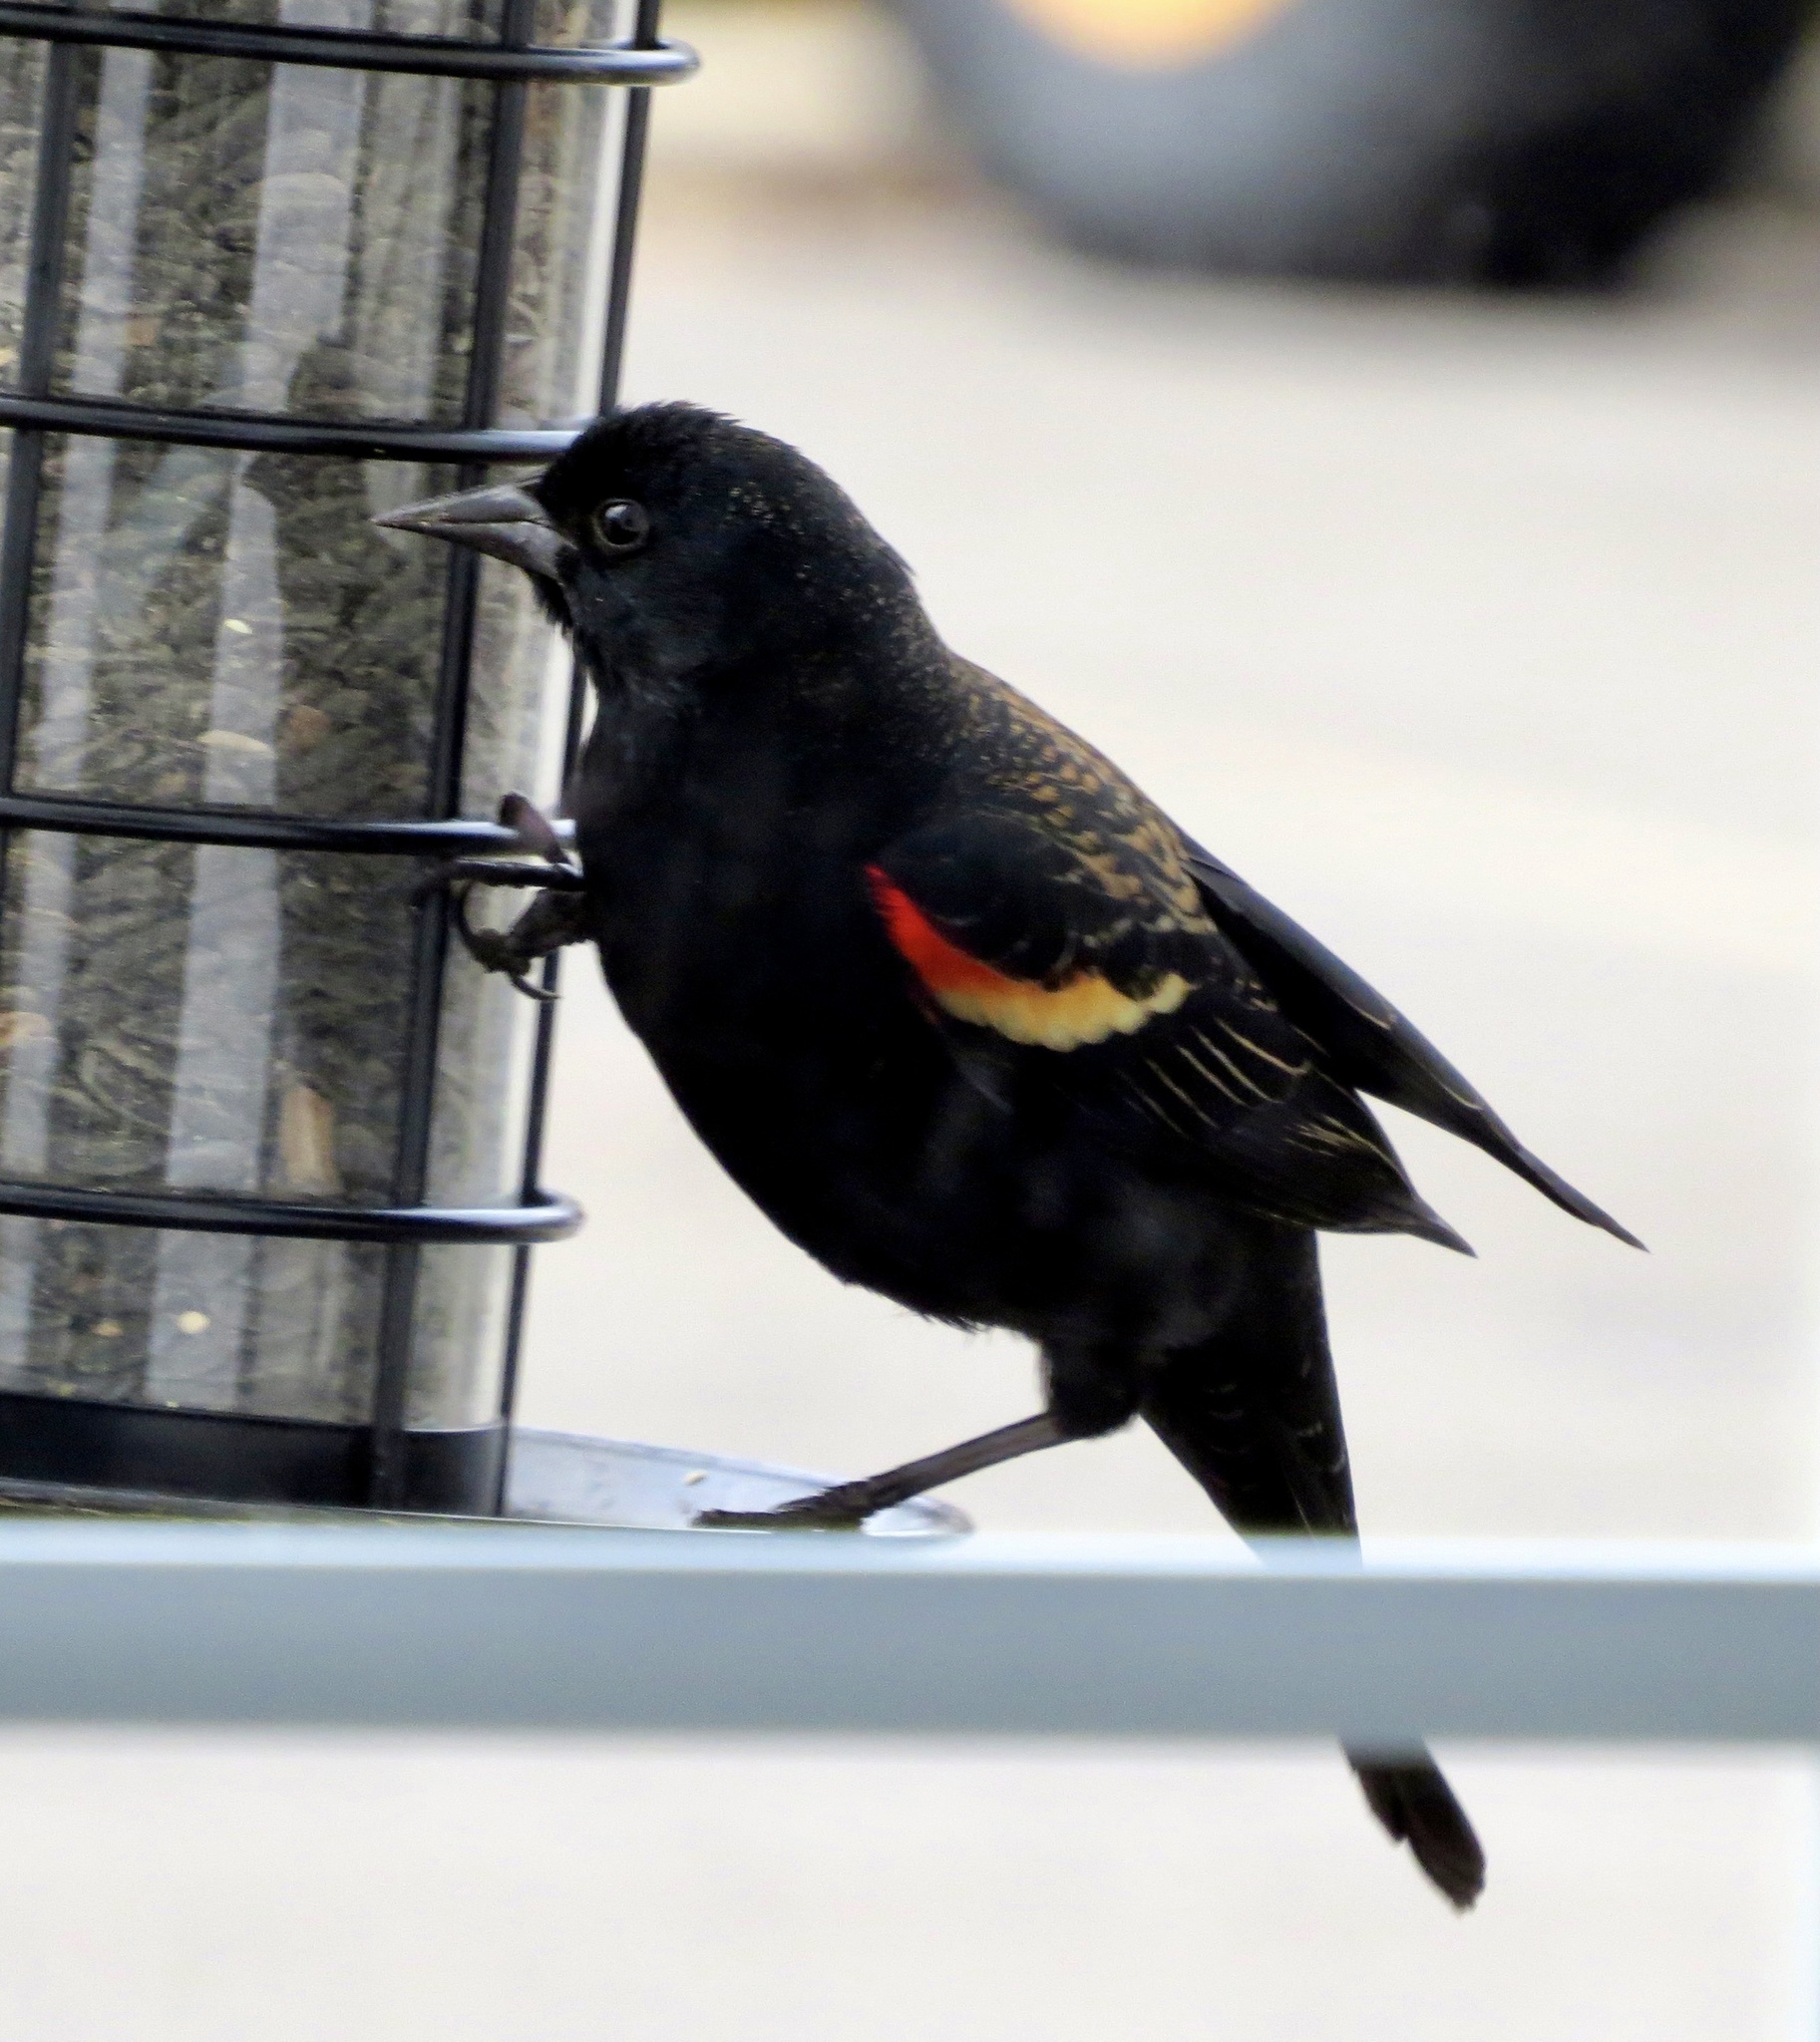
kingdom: Animalia
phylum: Chordata
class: Aves
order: Passeriformes
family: Icteridae
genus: Agelaius
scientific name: Agelaius phoeniceus
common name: Red-winged blackbird
